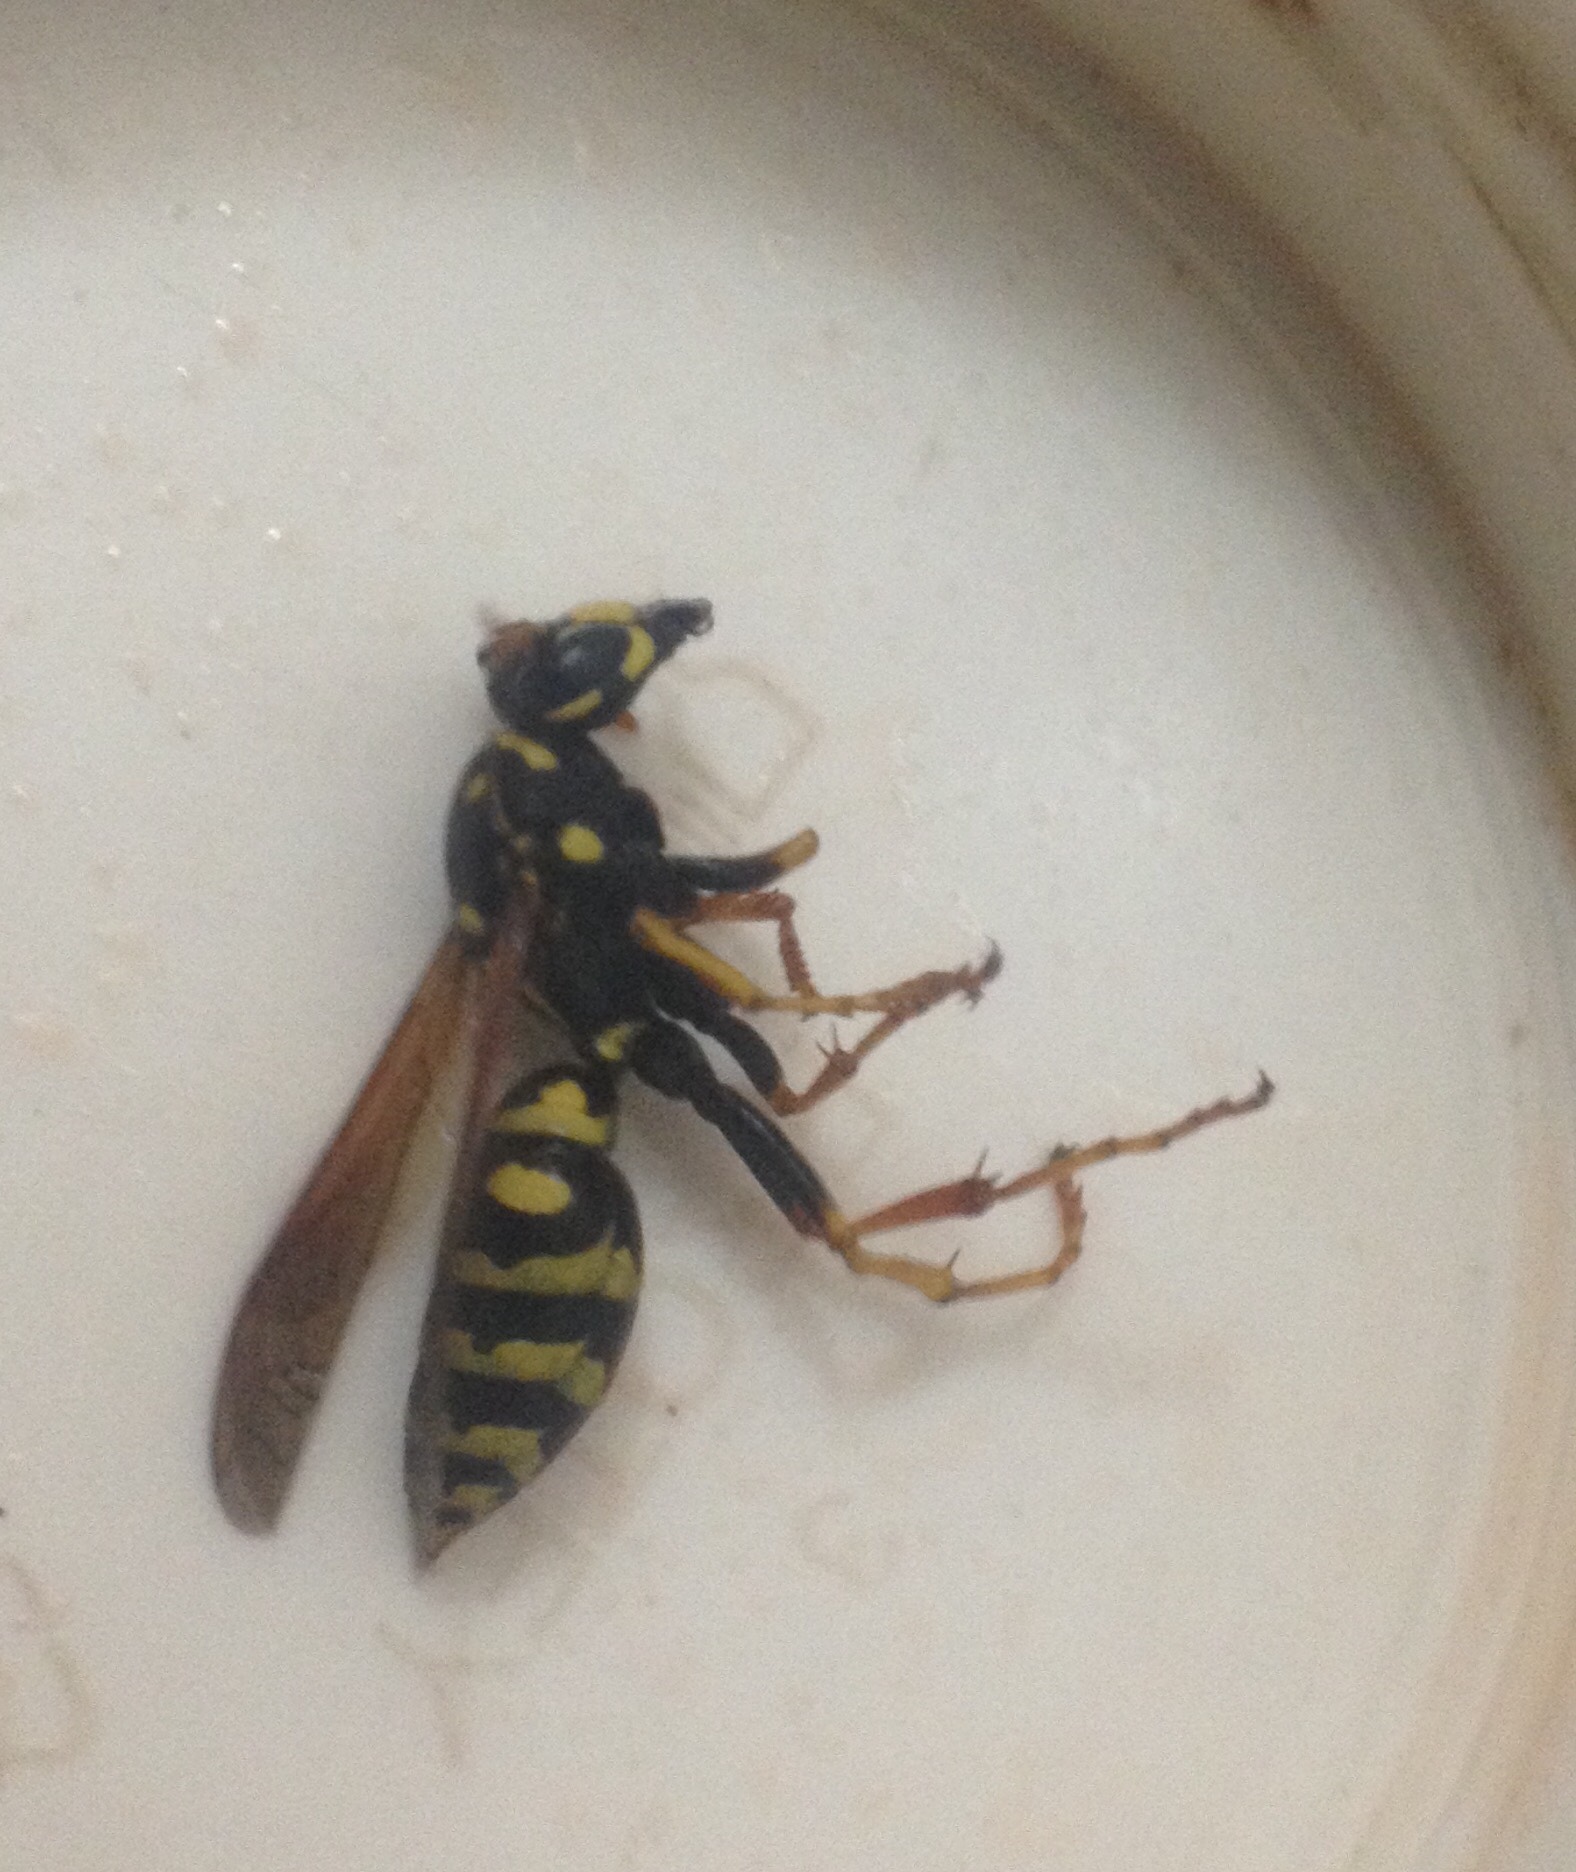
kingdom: Animalia
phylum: Arthropoda
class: Insecta
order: Hymenoptera
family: Eumenidae
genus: Polistes
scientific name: Polistes dominula
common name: Paper wasp
